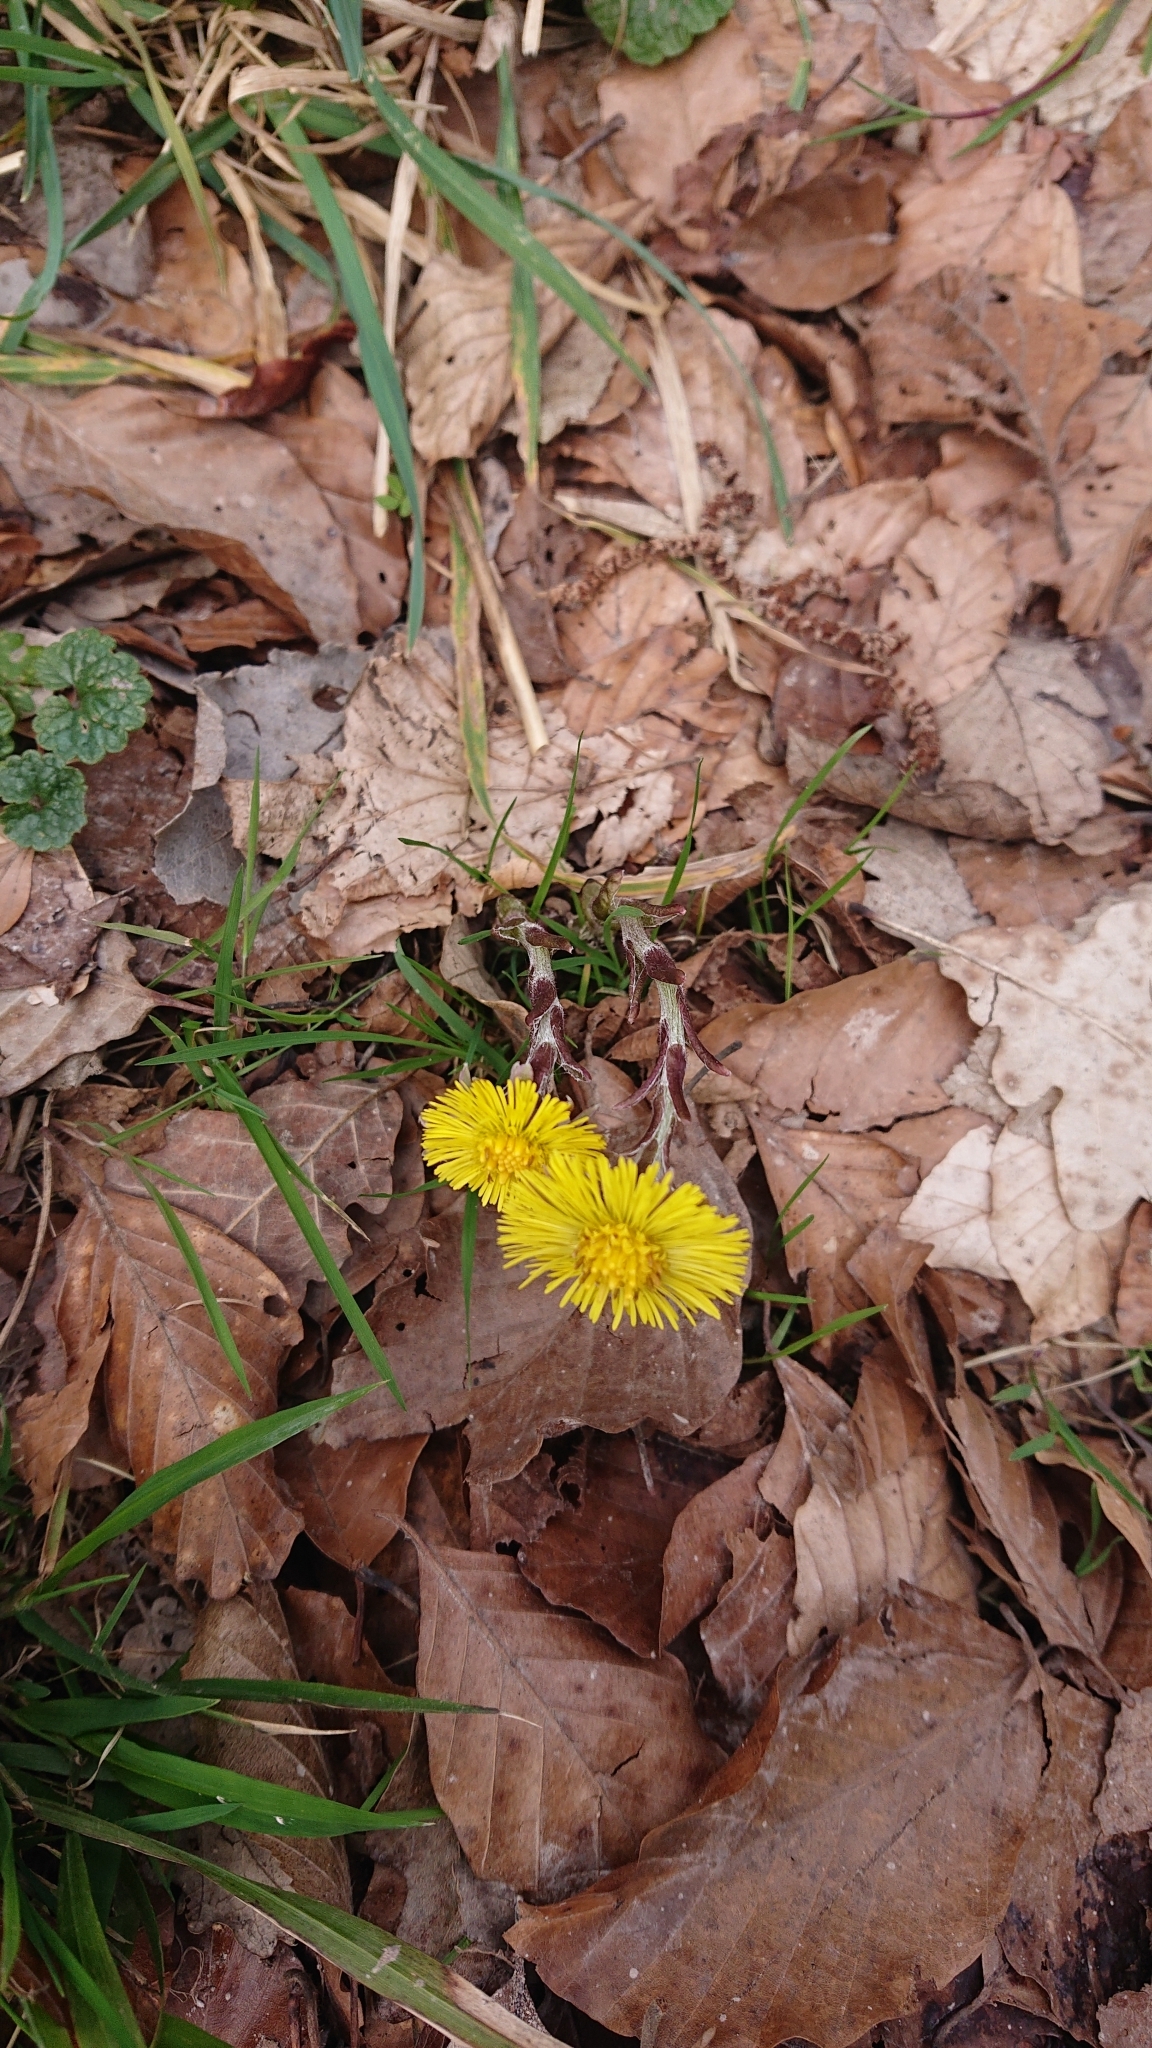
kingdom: Plantae
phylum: Tracheophyta
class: Magnoliopsida
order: Asterales
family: Asteraceae
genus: Tussilago
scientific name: Tussilago farfara
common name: Coltsfoot
